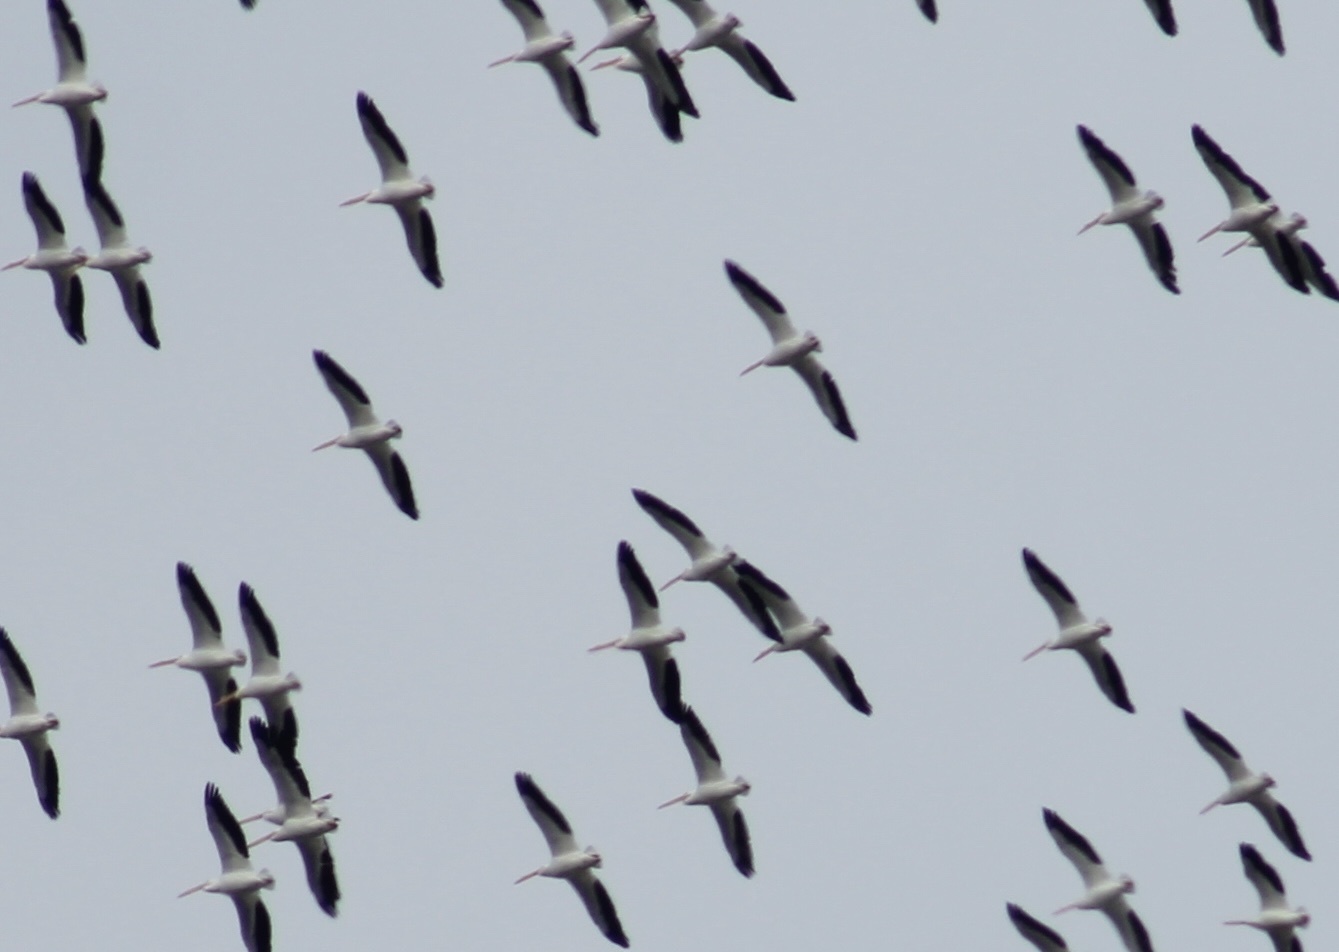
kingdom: Animalia
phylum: Chordata
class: Aves
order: Pelecaniformes
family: Pelecanidae
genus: Pelecanus
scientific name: Pelecanus erythrorhynchos
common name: American white pelican
